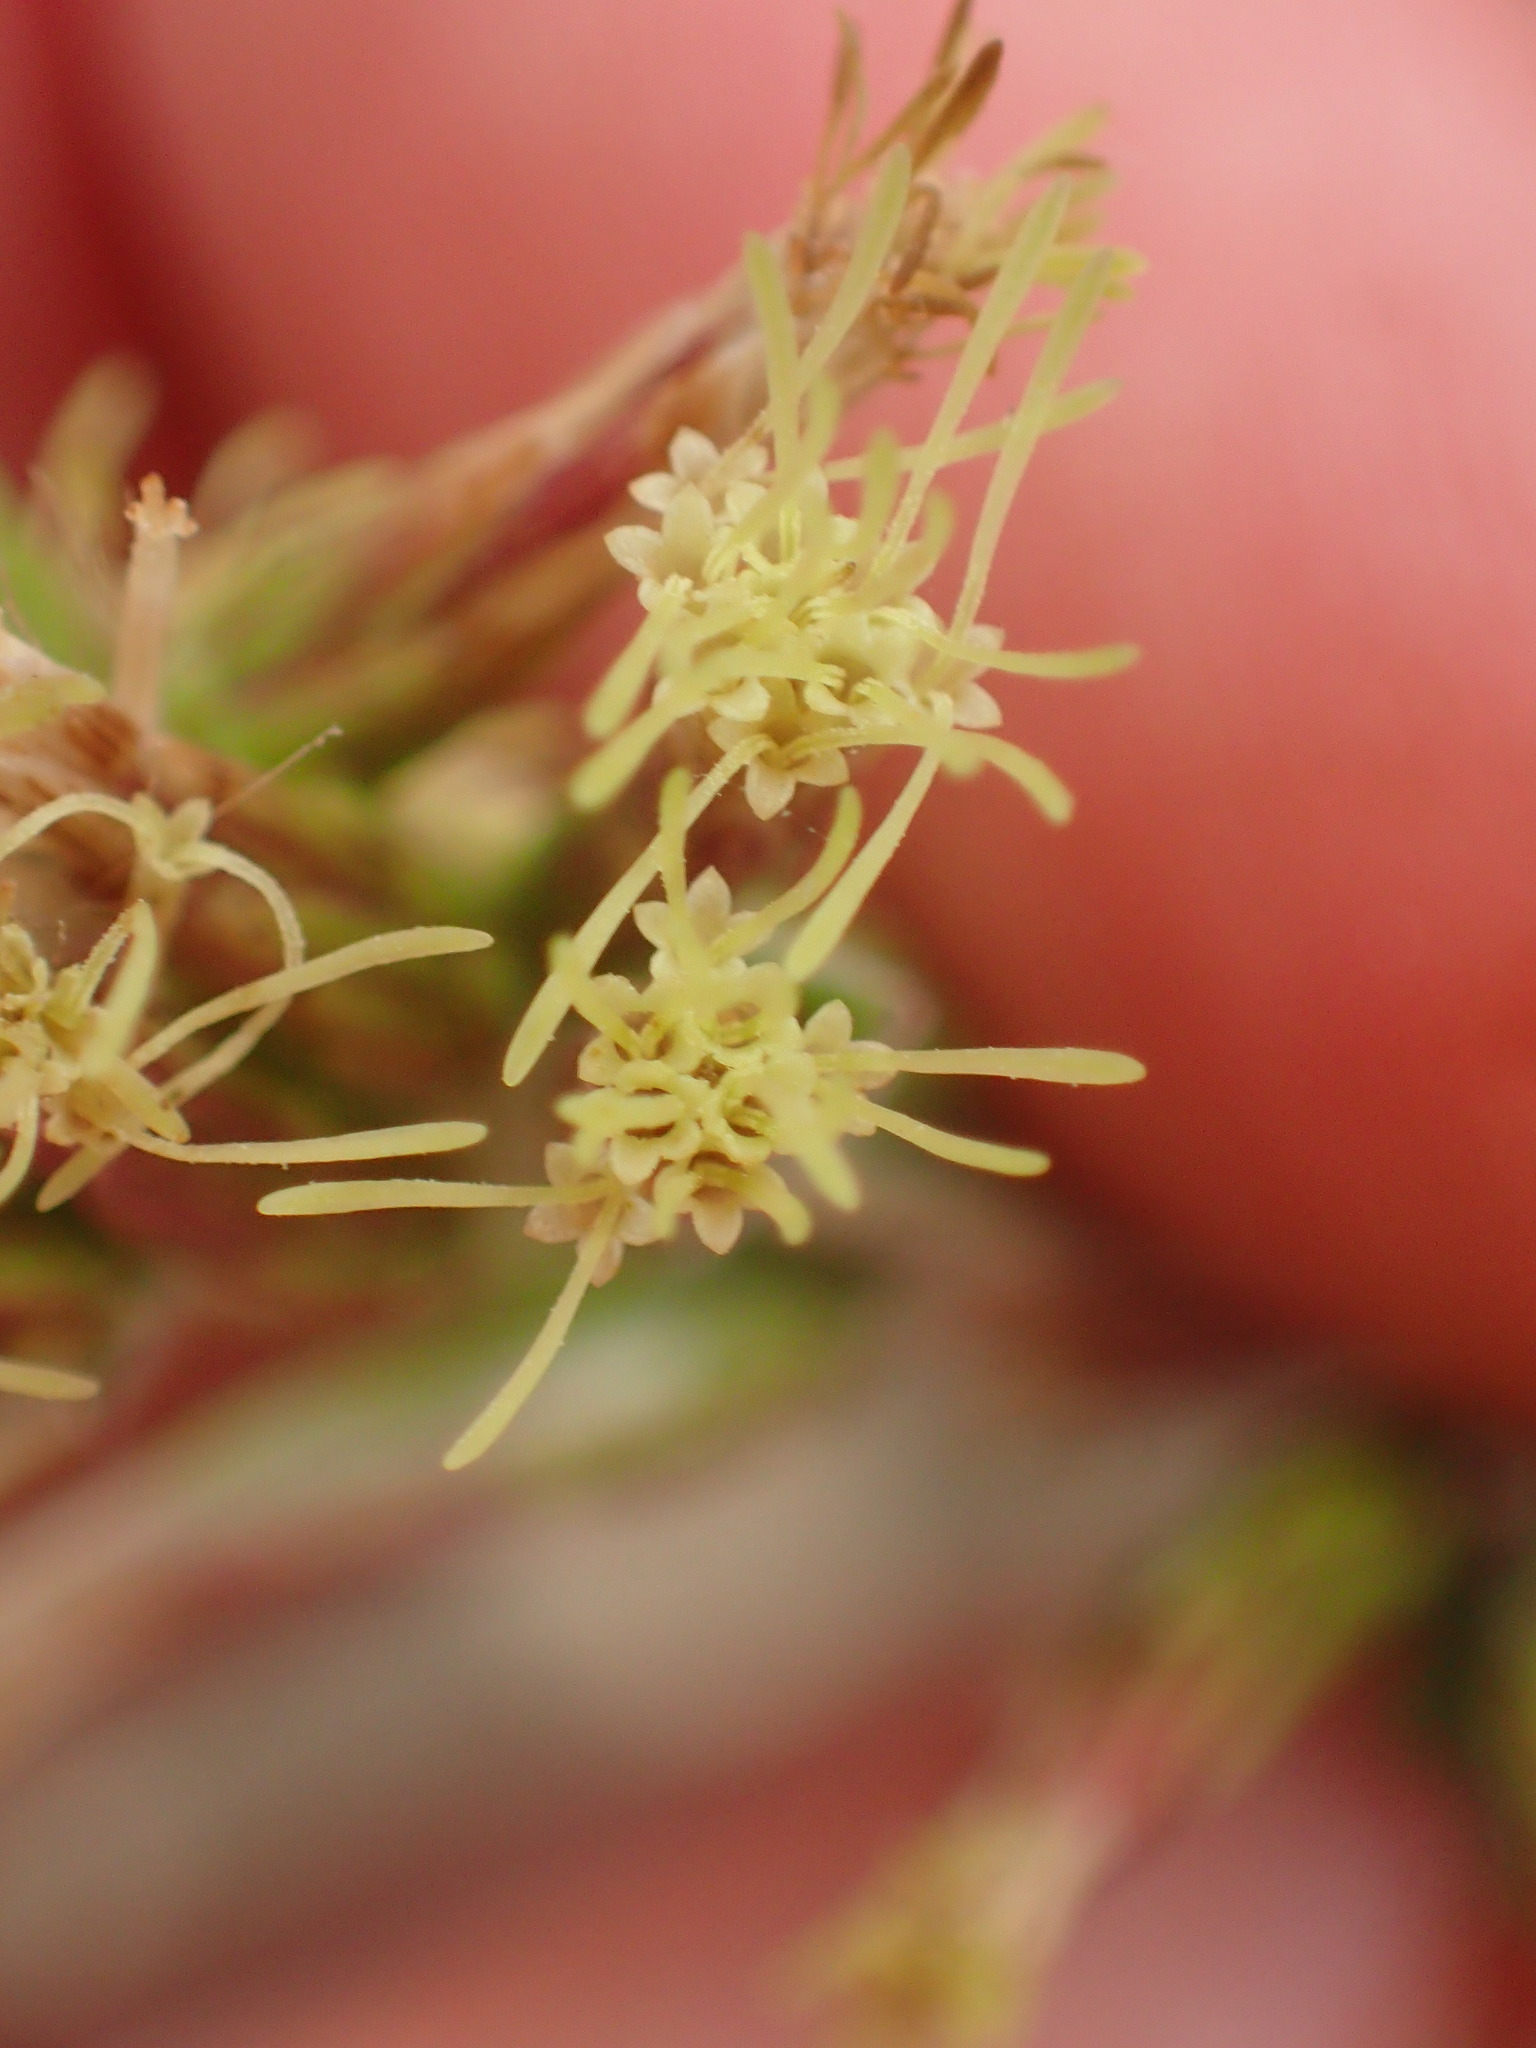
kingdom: Plantae
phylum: Tracheophyta
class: Magnoliopsida
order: Asterales
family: Asteraceae
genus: Brickellia
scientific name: Brickellia californica
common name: California brickellbush
